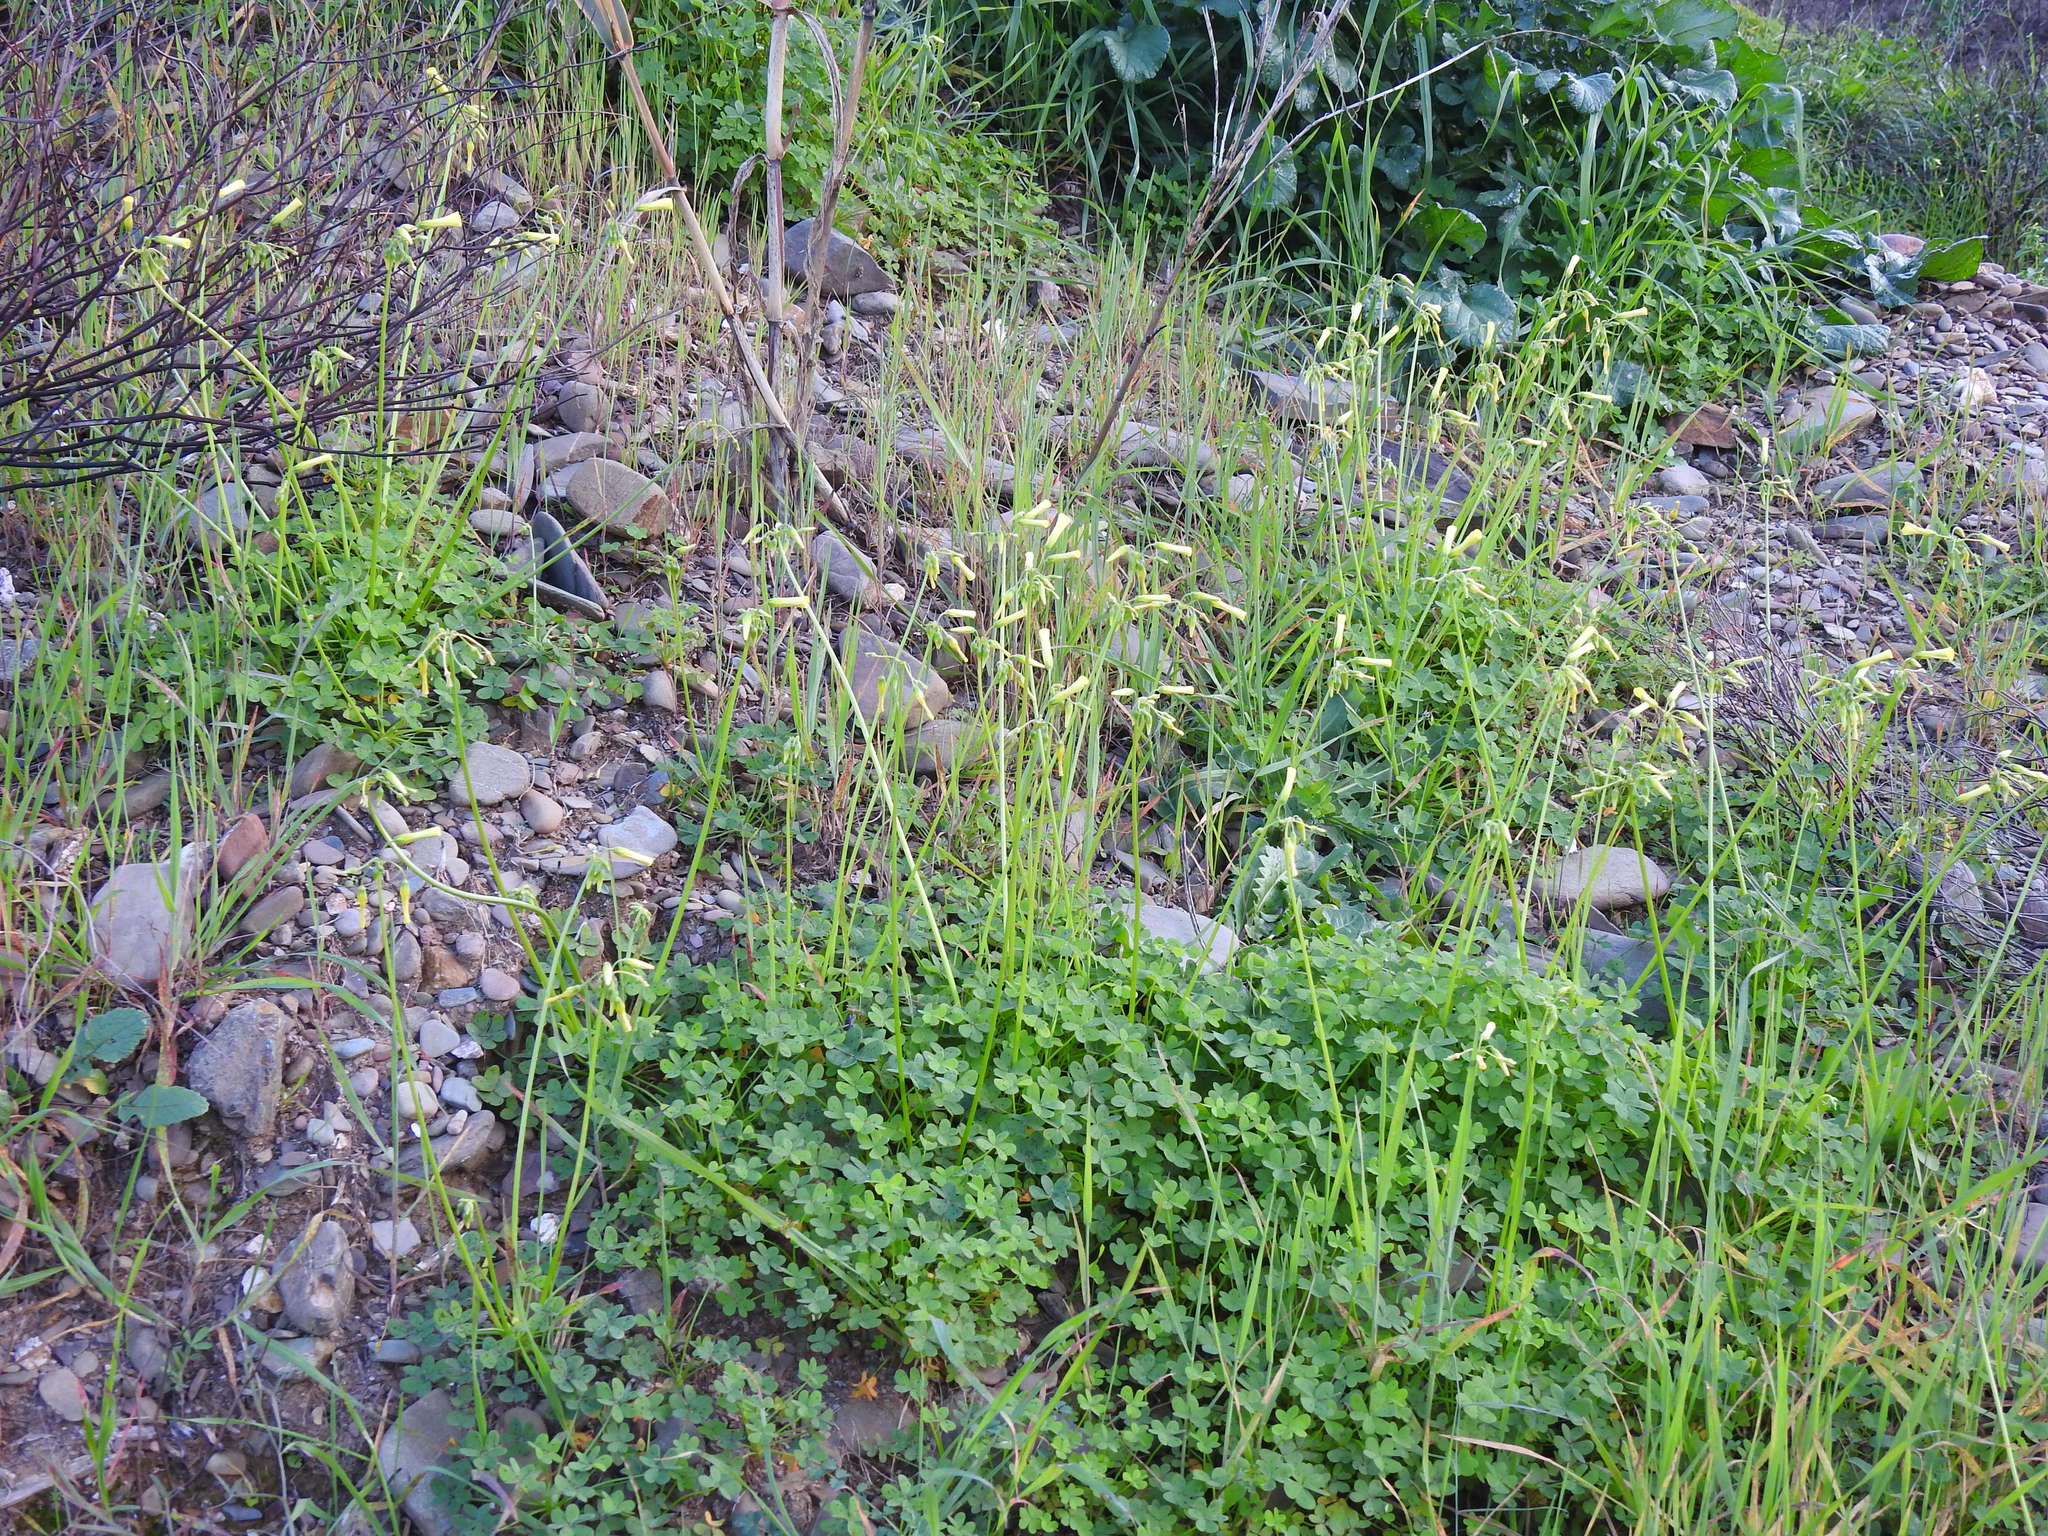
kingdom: Plantae
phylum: Tracheophyta
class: Magnoliopsida
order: Oxalidales
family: Oxalidaceae
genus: Oxalis
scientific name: Oxalis pes-caprae
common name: Bermuda-buttercup
